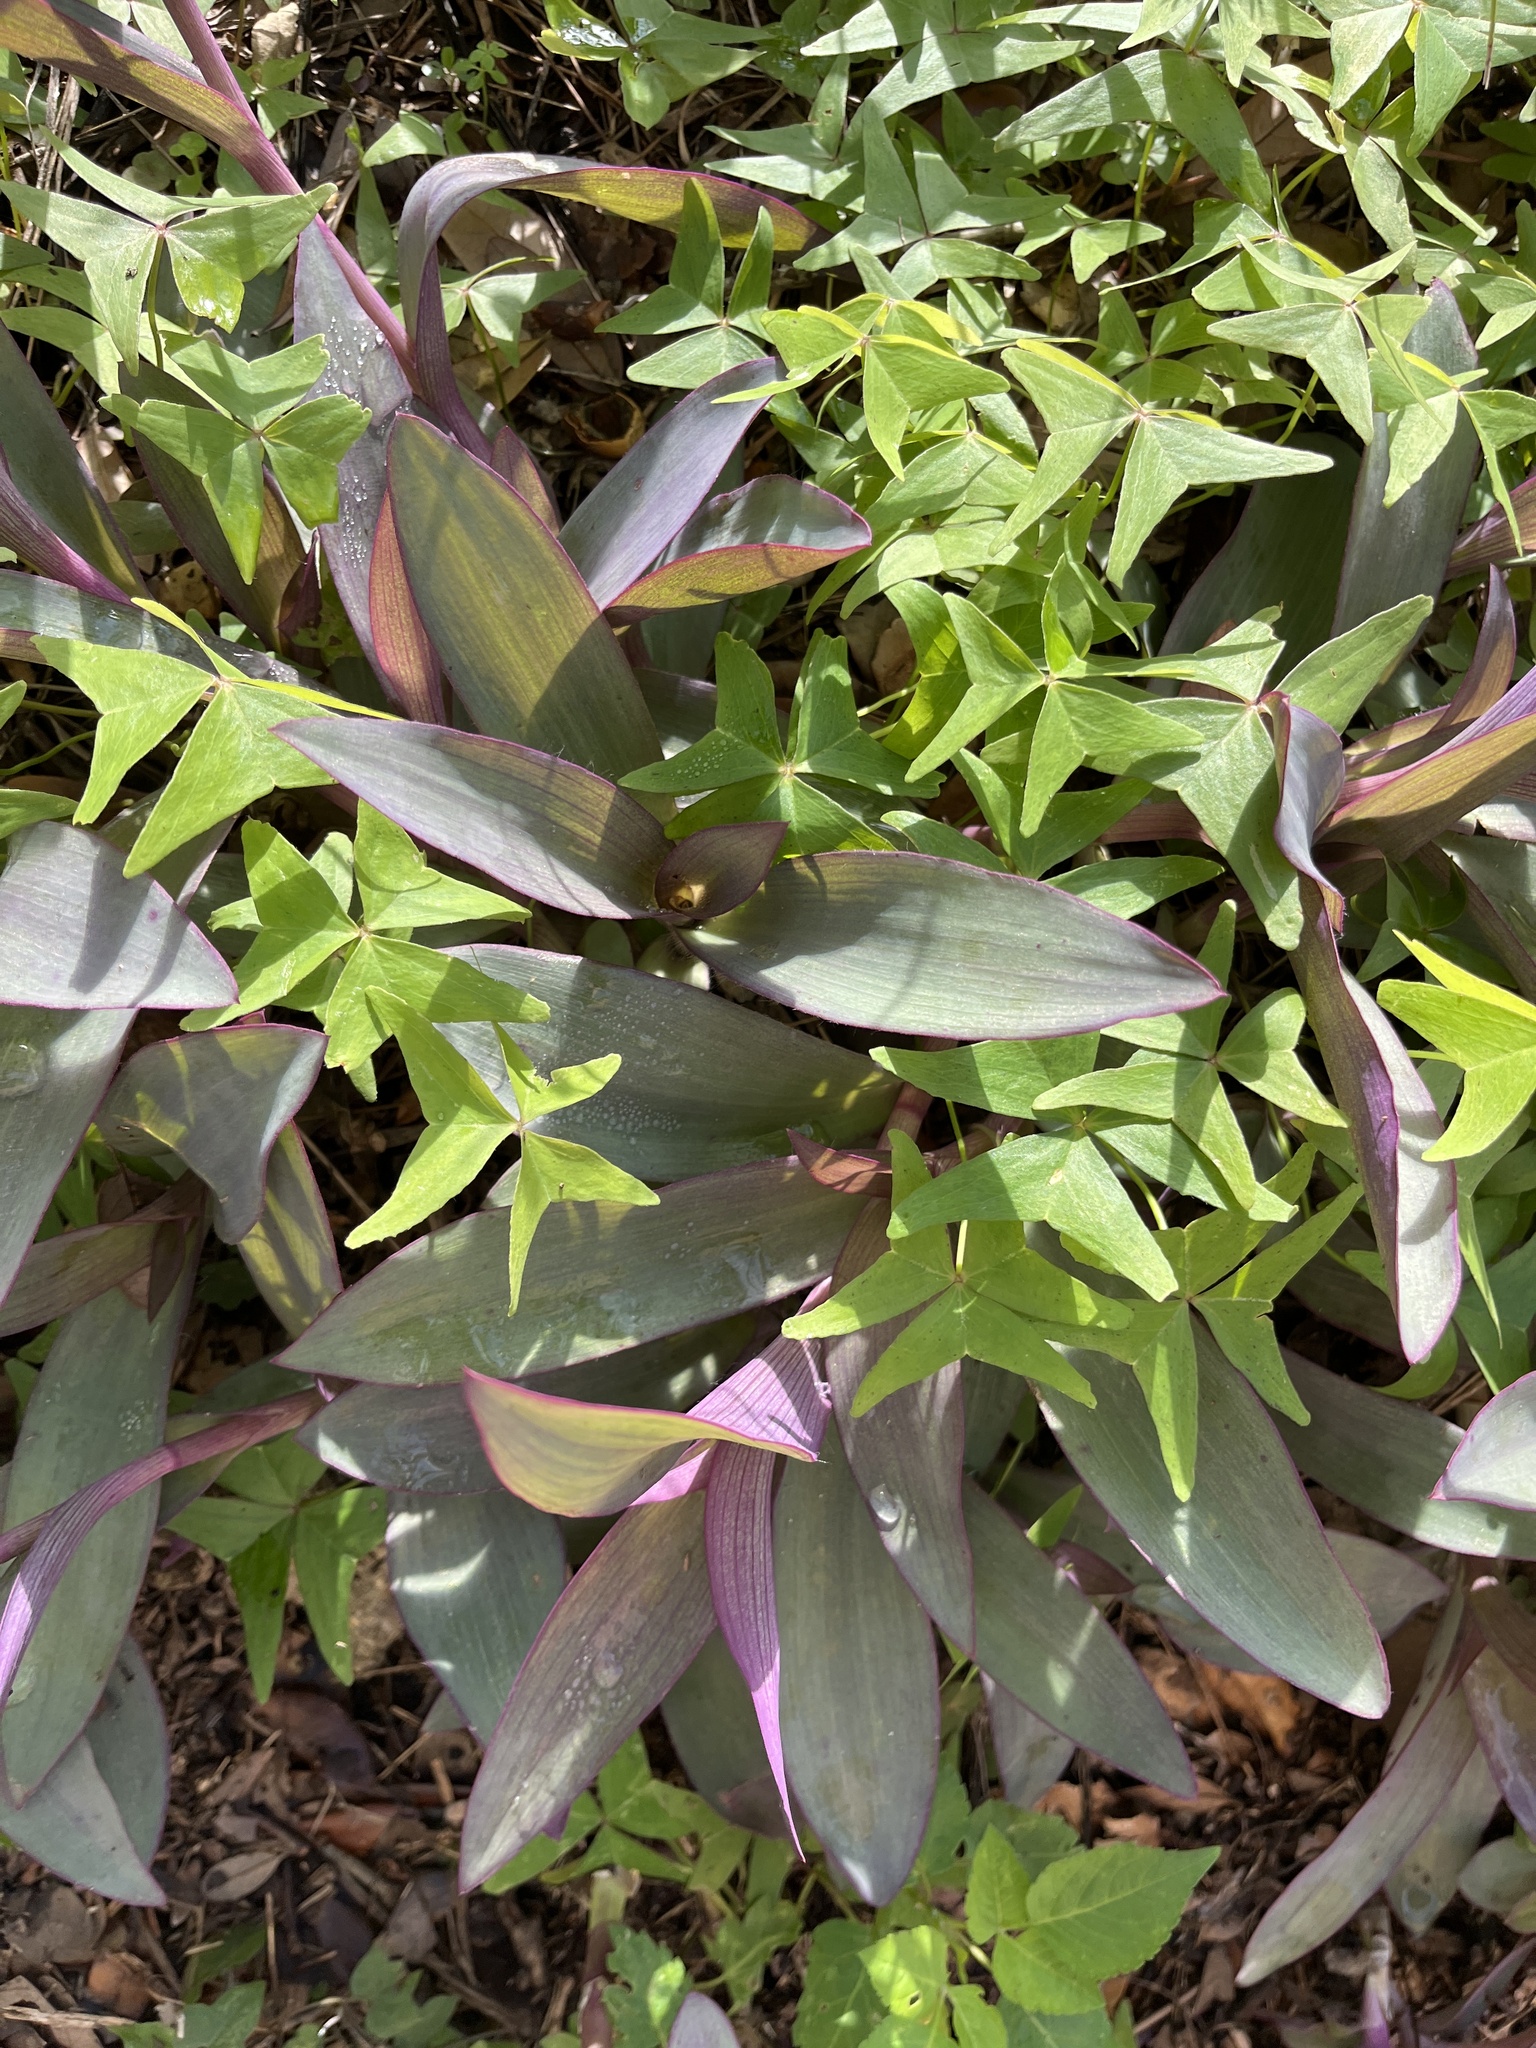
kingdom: Plantae
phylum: Tracheophyta
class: Liliopsida
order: Commelinales
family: Commelinaceae
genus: Tradescantia
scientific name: Tradescantia pallida
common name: Purpleheart
